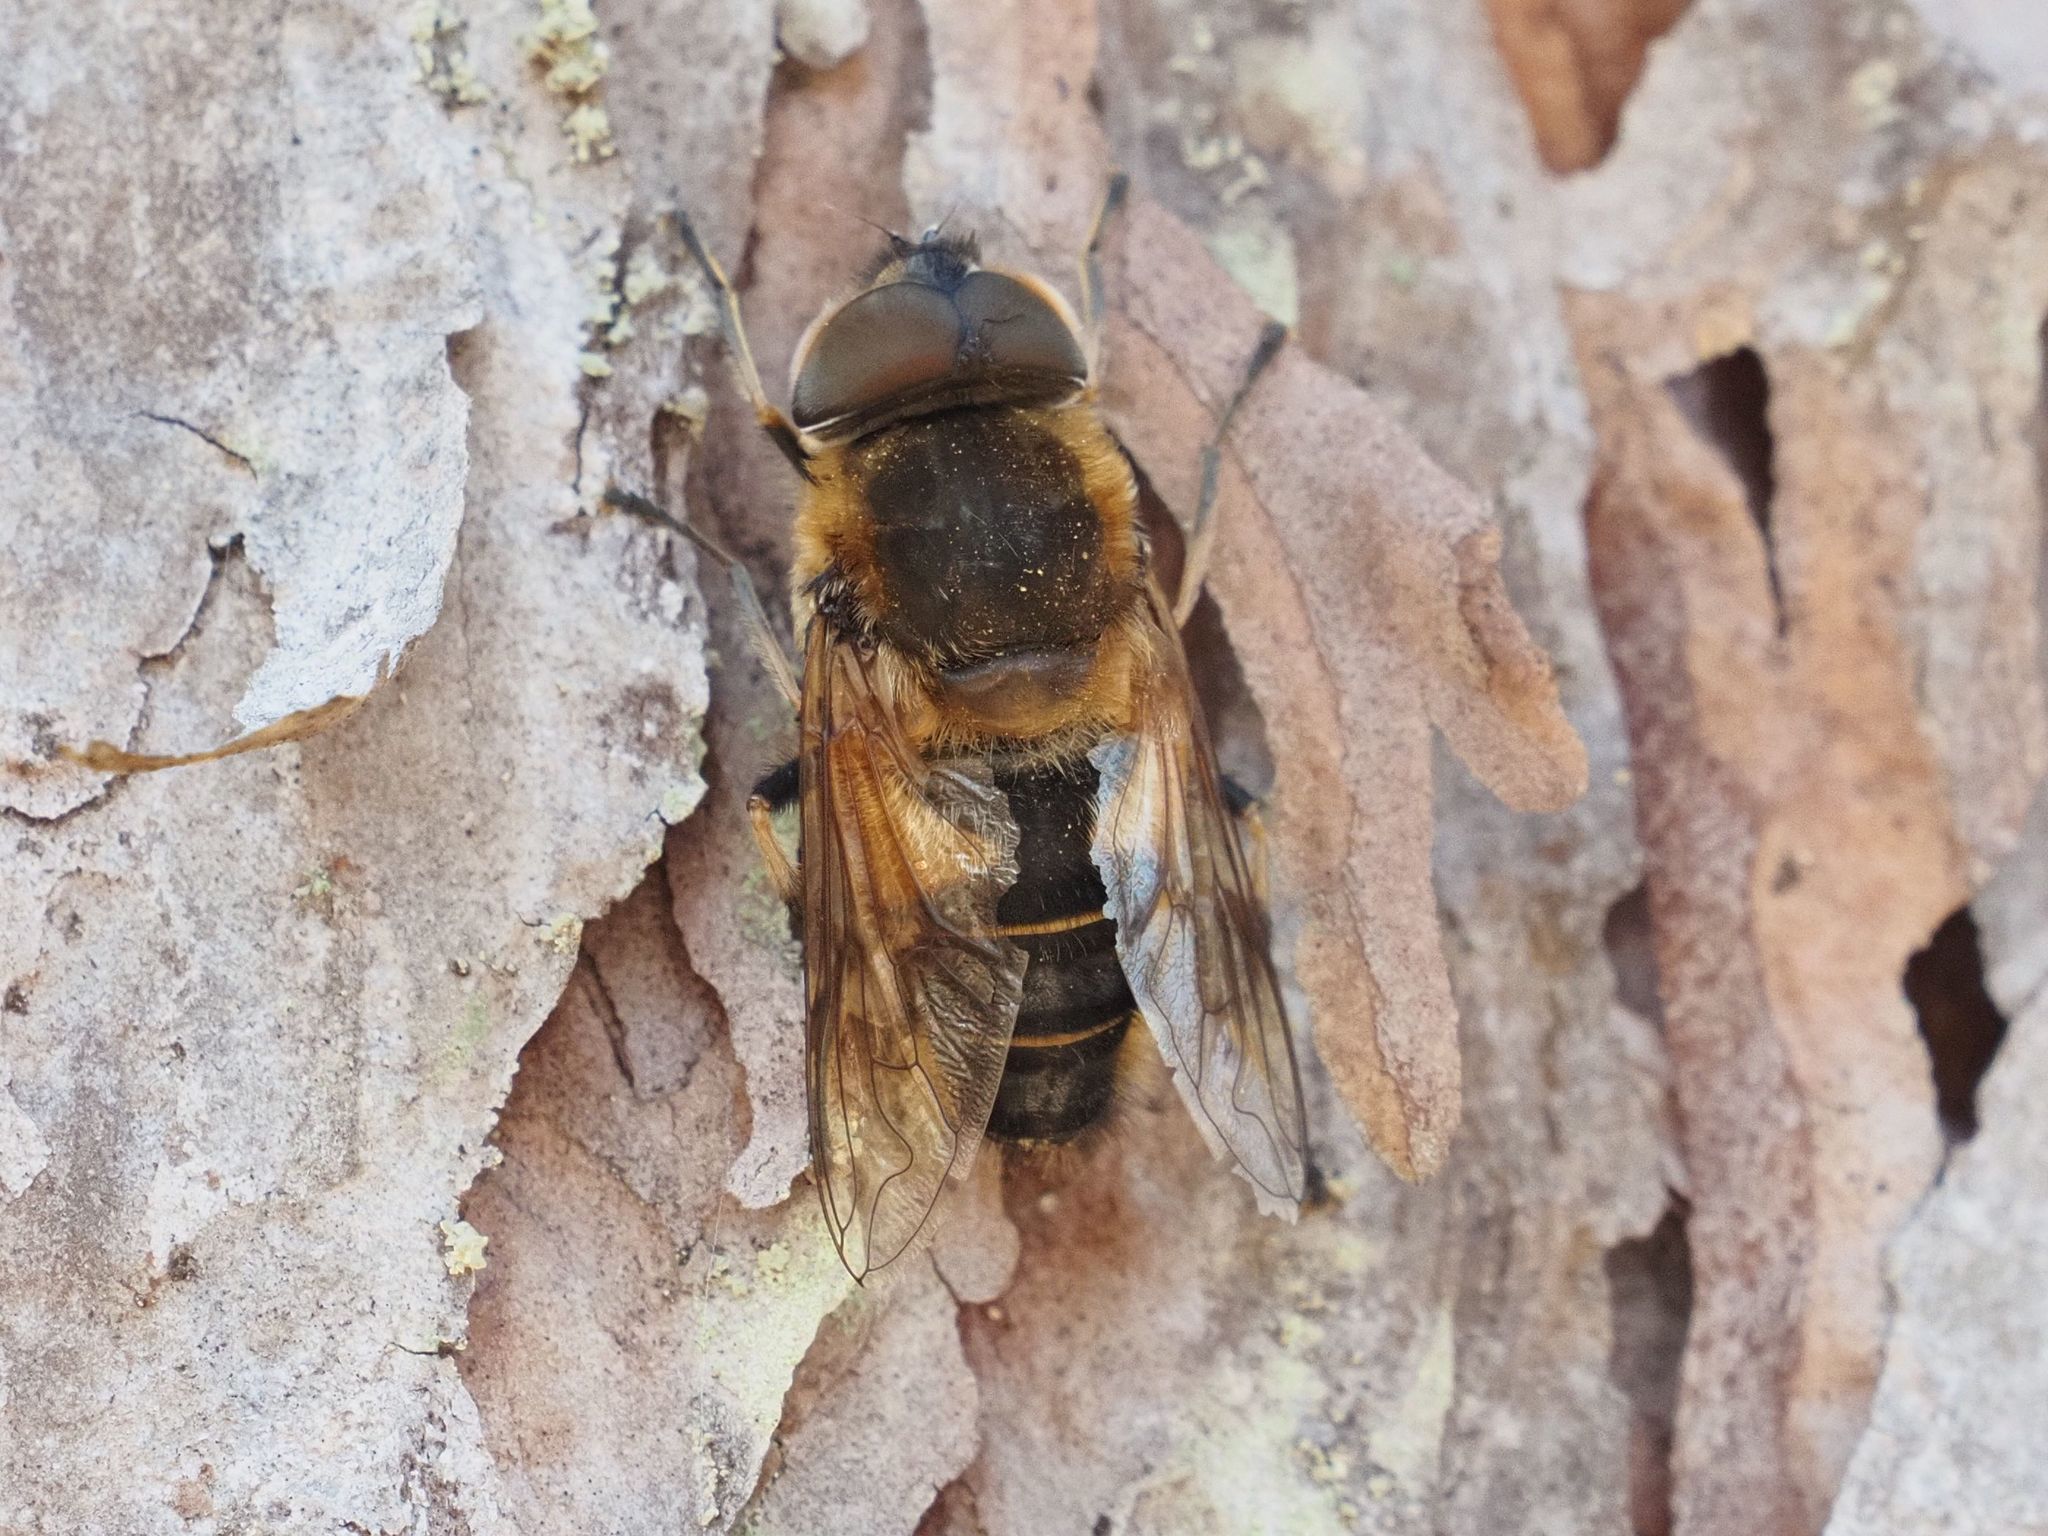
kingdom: Animalia
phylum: Arthropoda
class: Insecta
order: Diptera
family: Syrphidae
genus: Eristalis
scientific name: Eristalis pertinax
